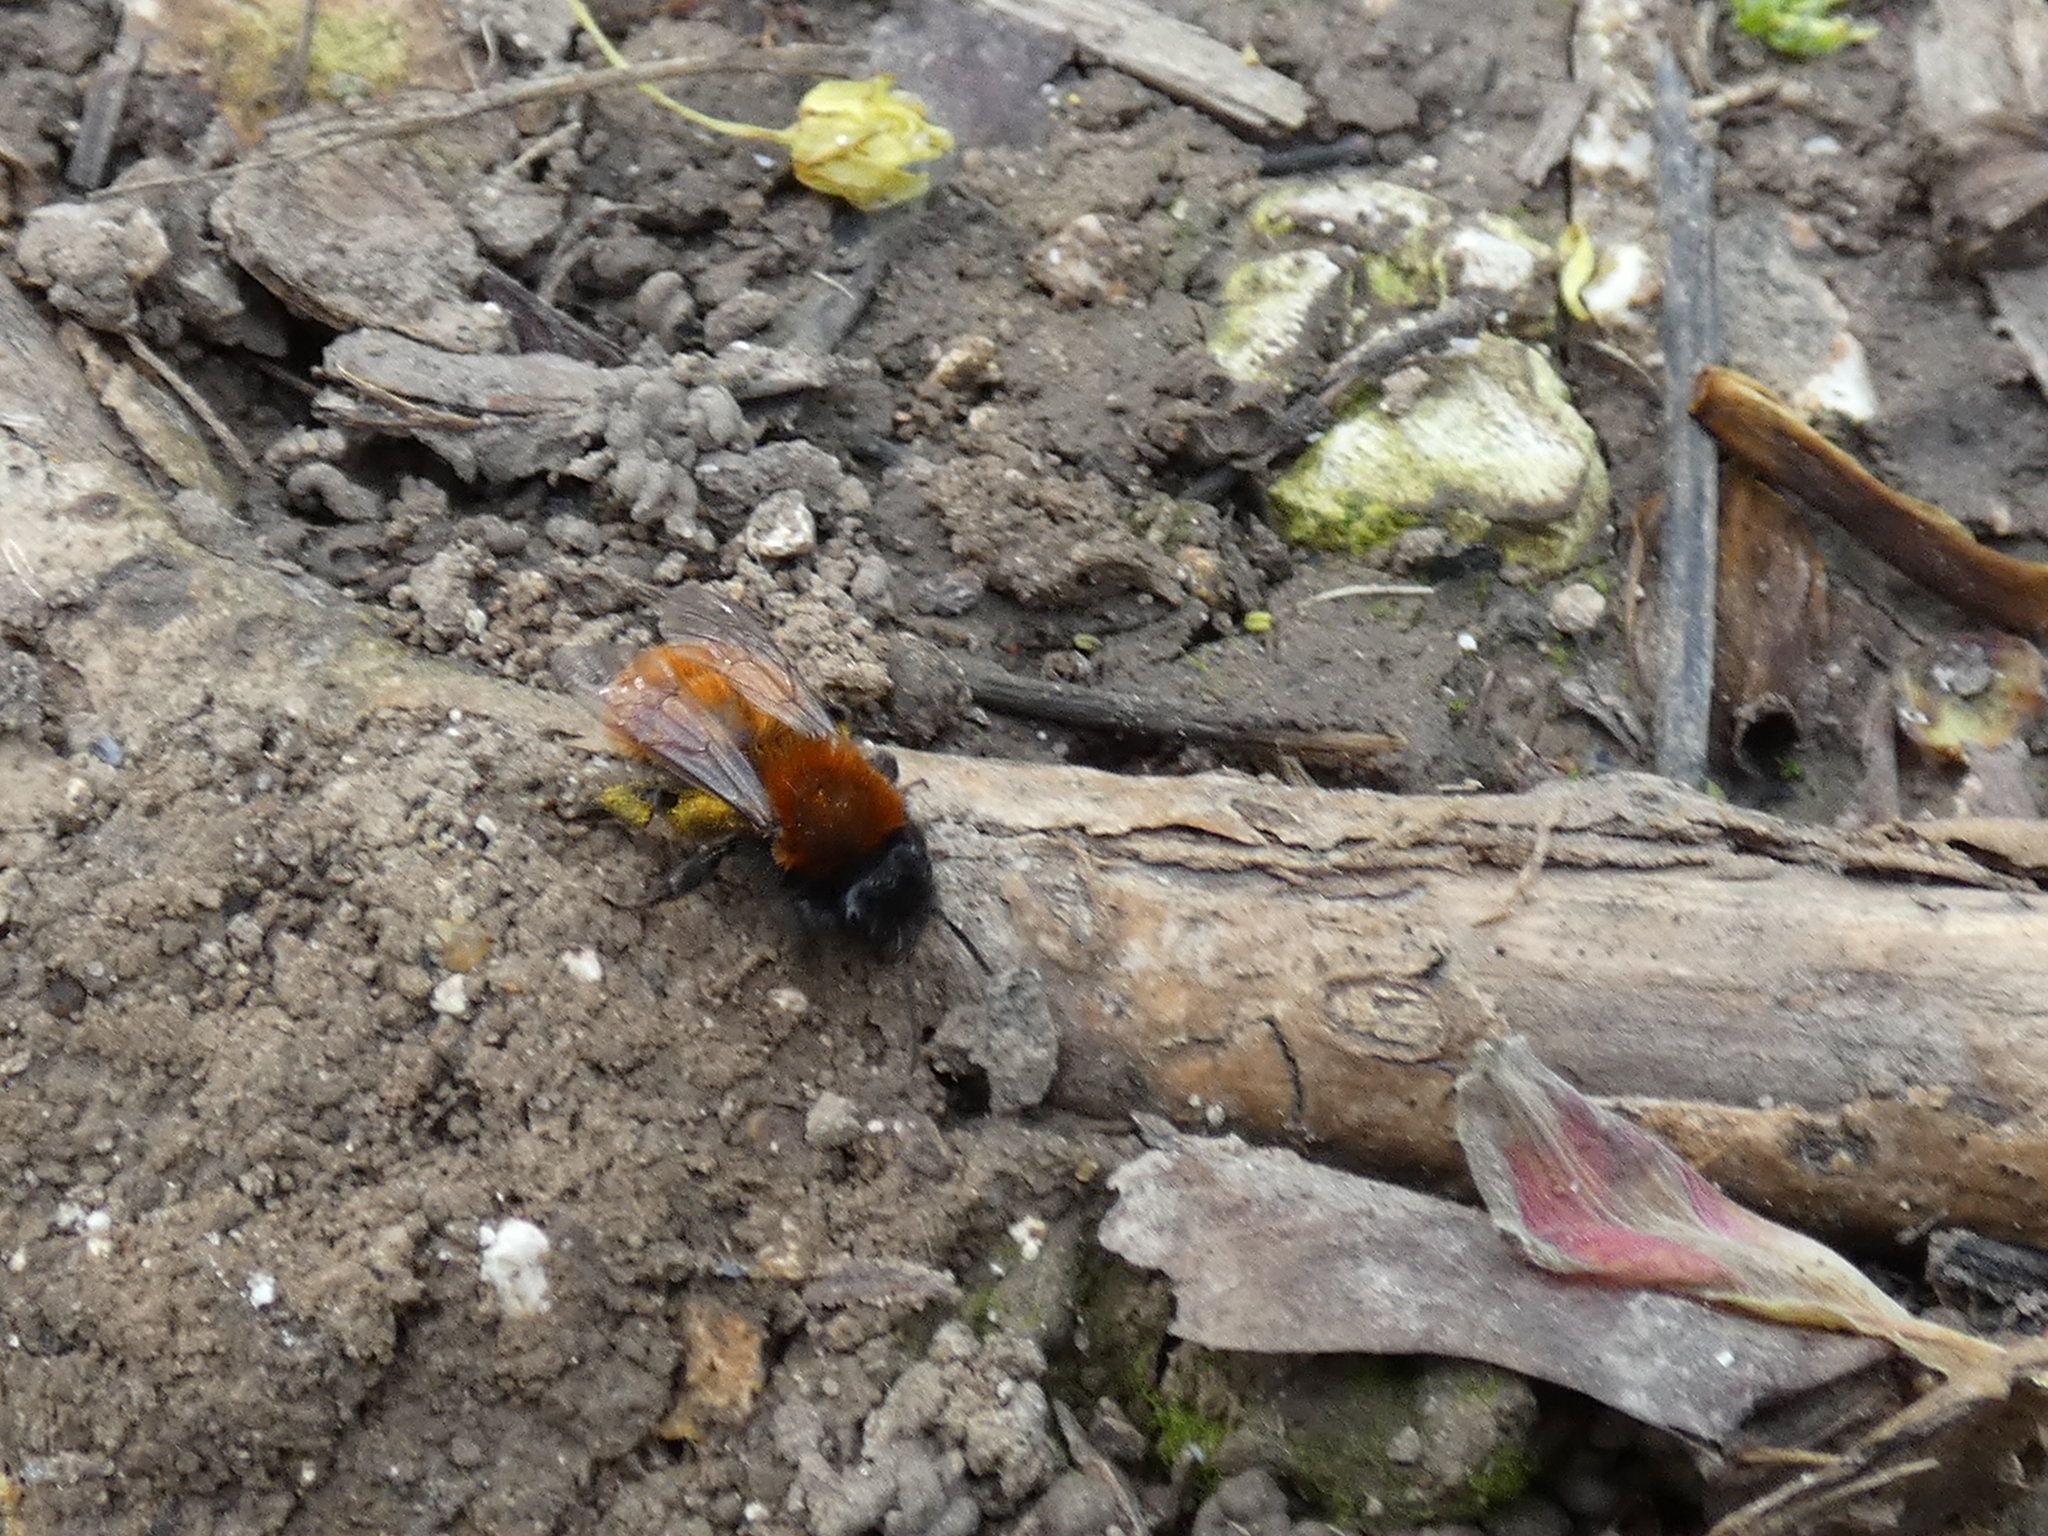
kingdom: Animalia
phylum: Arthropoda
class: Insecta
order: Hymenoptera
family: Andrenidae
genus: Andrena
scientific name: Andrena fulva
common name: Tawny mining bee
